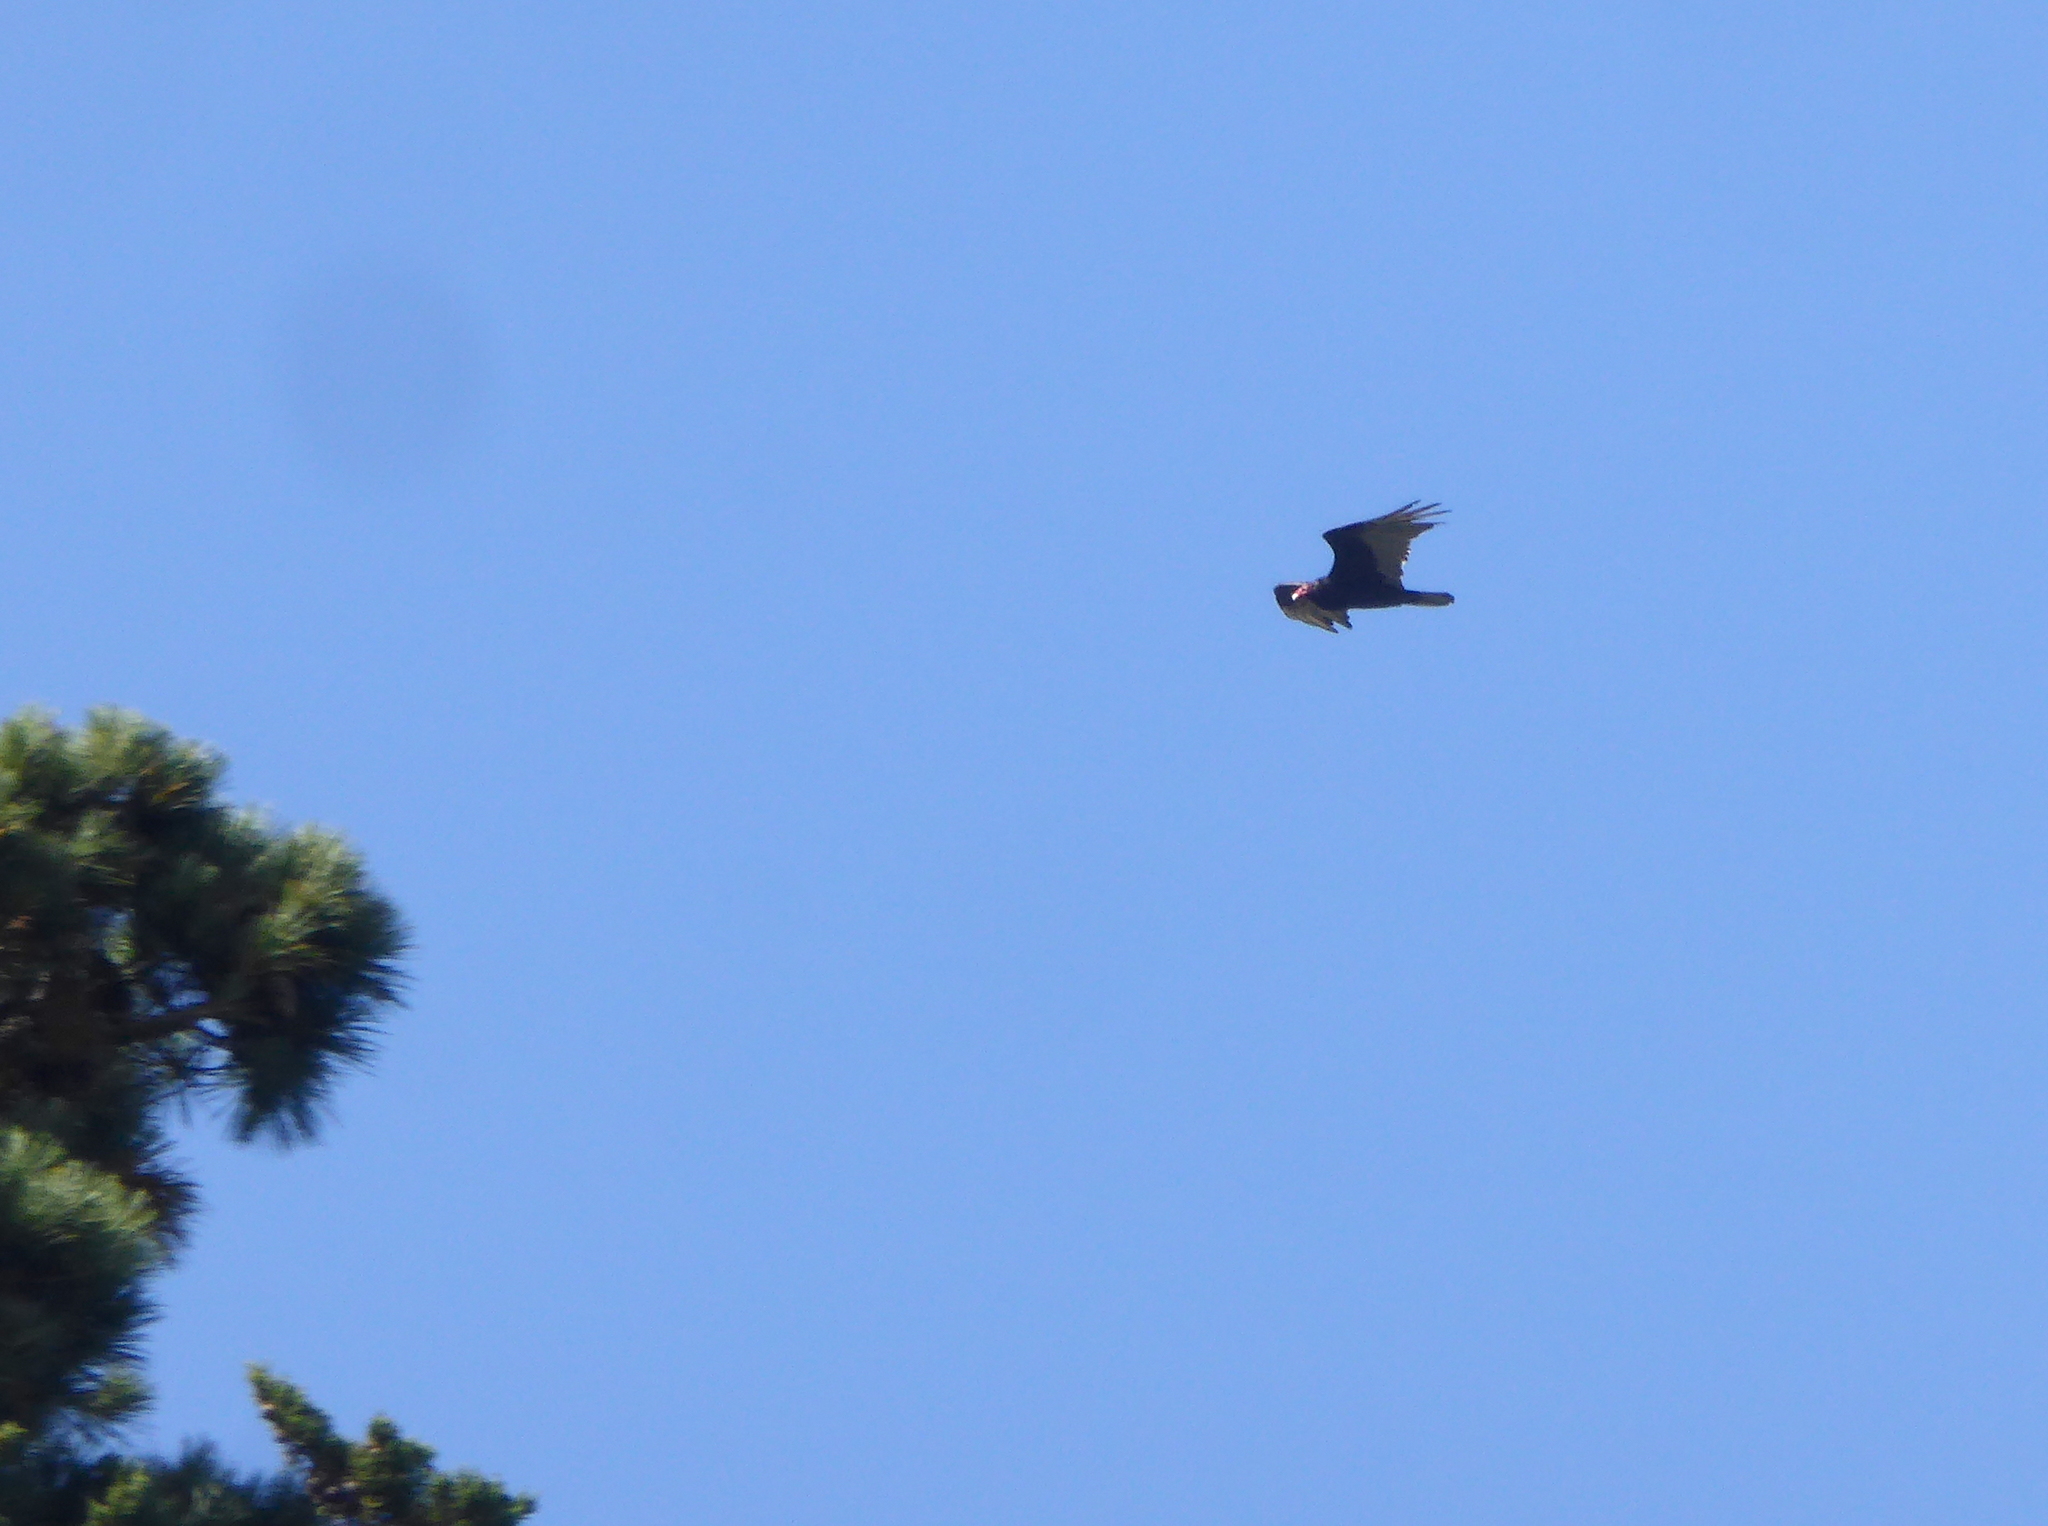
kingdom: Animalia
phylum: Chordata
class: Aves
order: Accipitriformes
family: Cathartidae
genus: Cathartes
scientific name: Cathartes aura
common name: Turkey vulture
